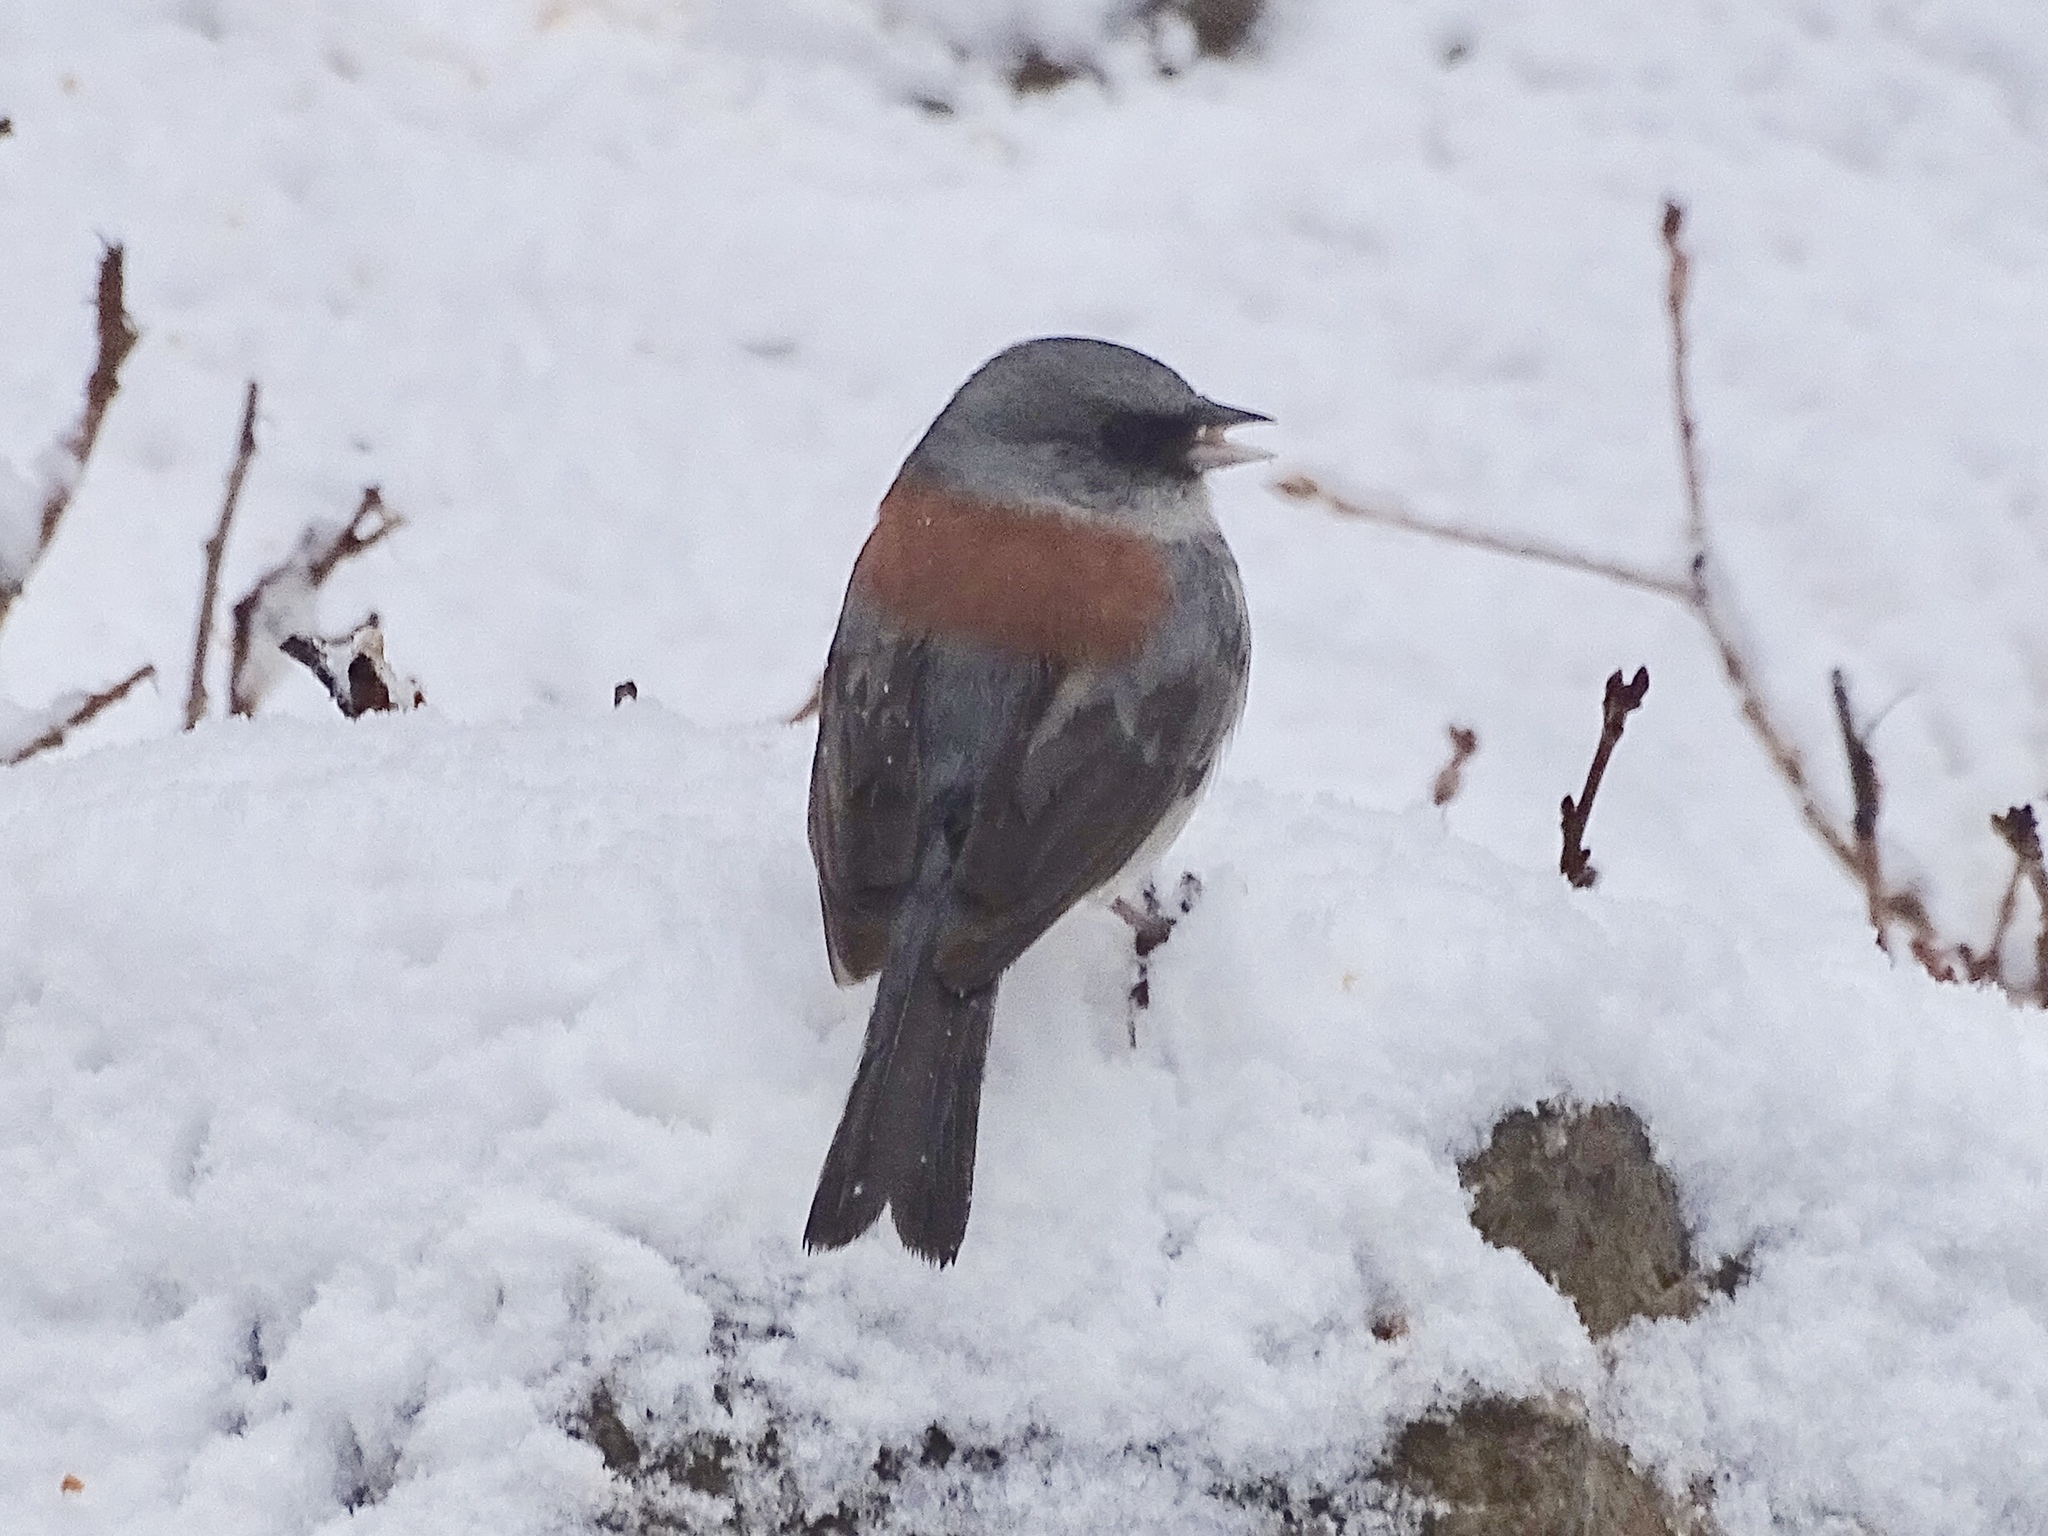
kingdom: Animalia
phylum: Chordata
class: Aves
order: Passeriformes
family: Passerellidae
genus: Junco
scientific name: Junco hyemalis
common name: Dark-eyed junco
